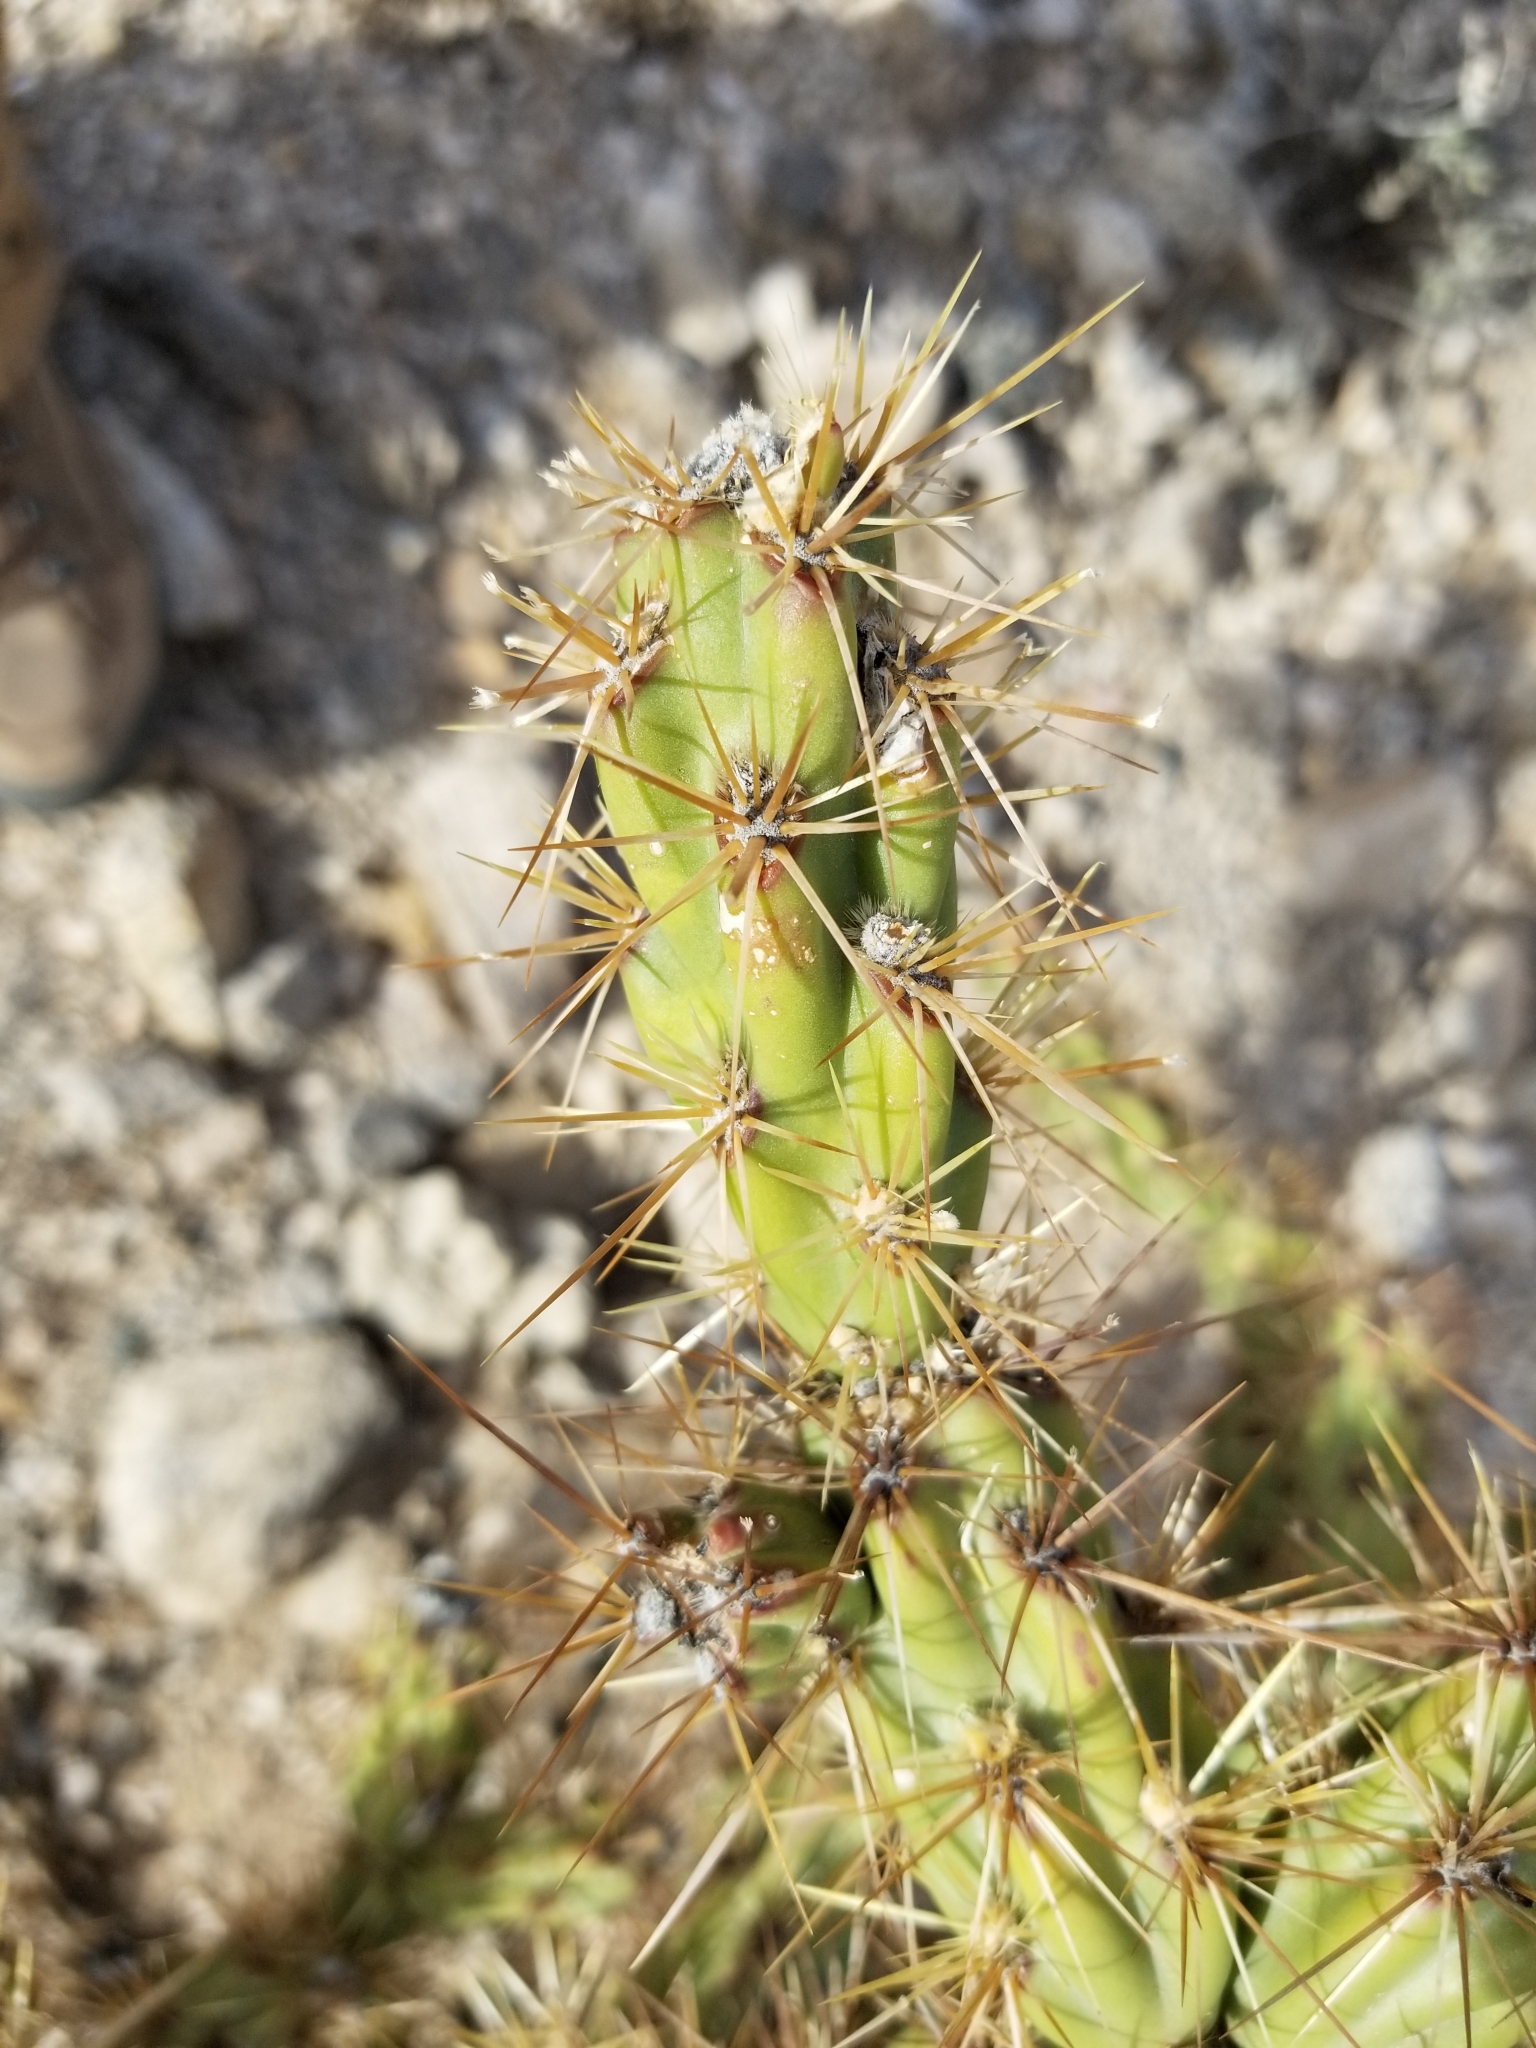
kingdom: Plantae
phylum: Tracheophyta
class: Magnoliopsida
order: Caryophyllales
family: Cactaceae
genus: Cylindropuntia
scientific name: Cylindropuntia acanthocarpa
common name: Buckhorn cholla
